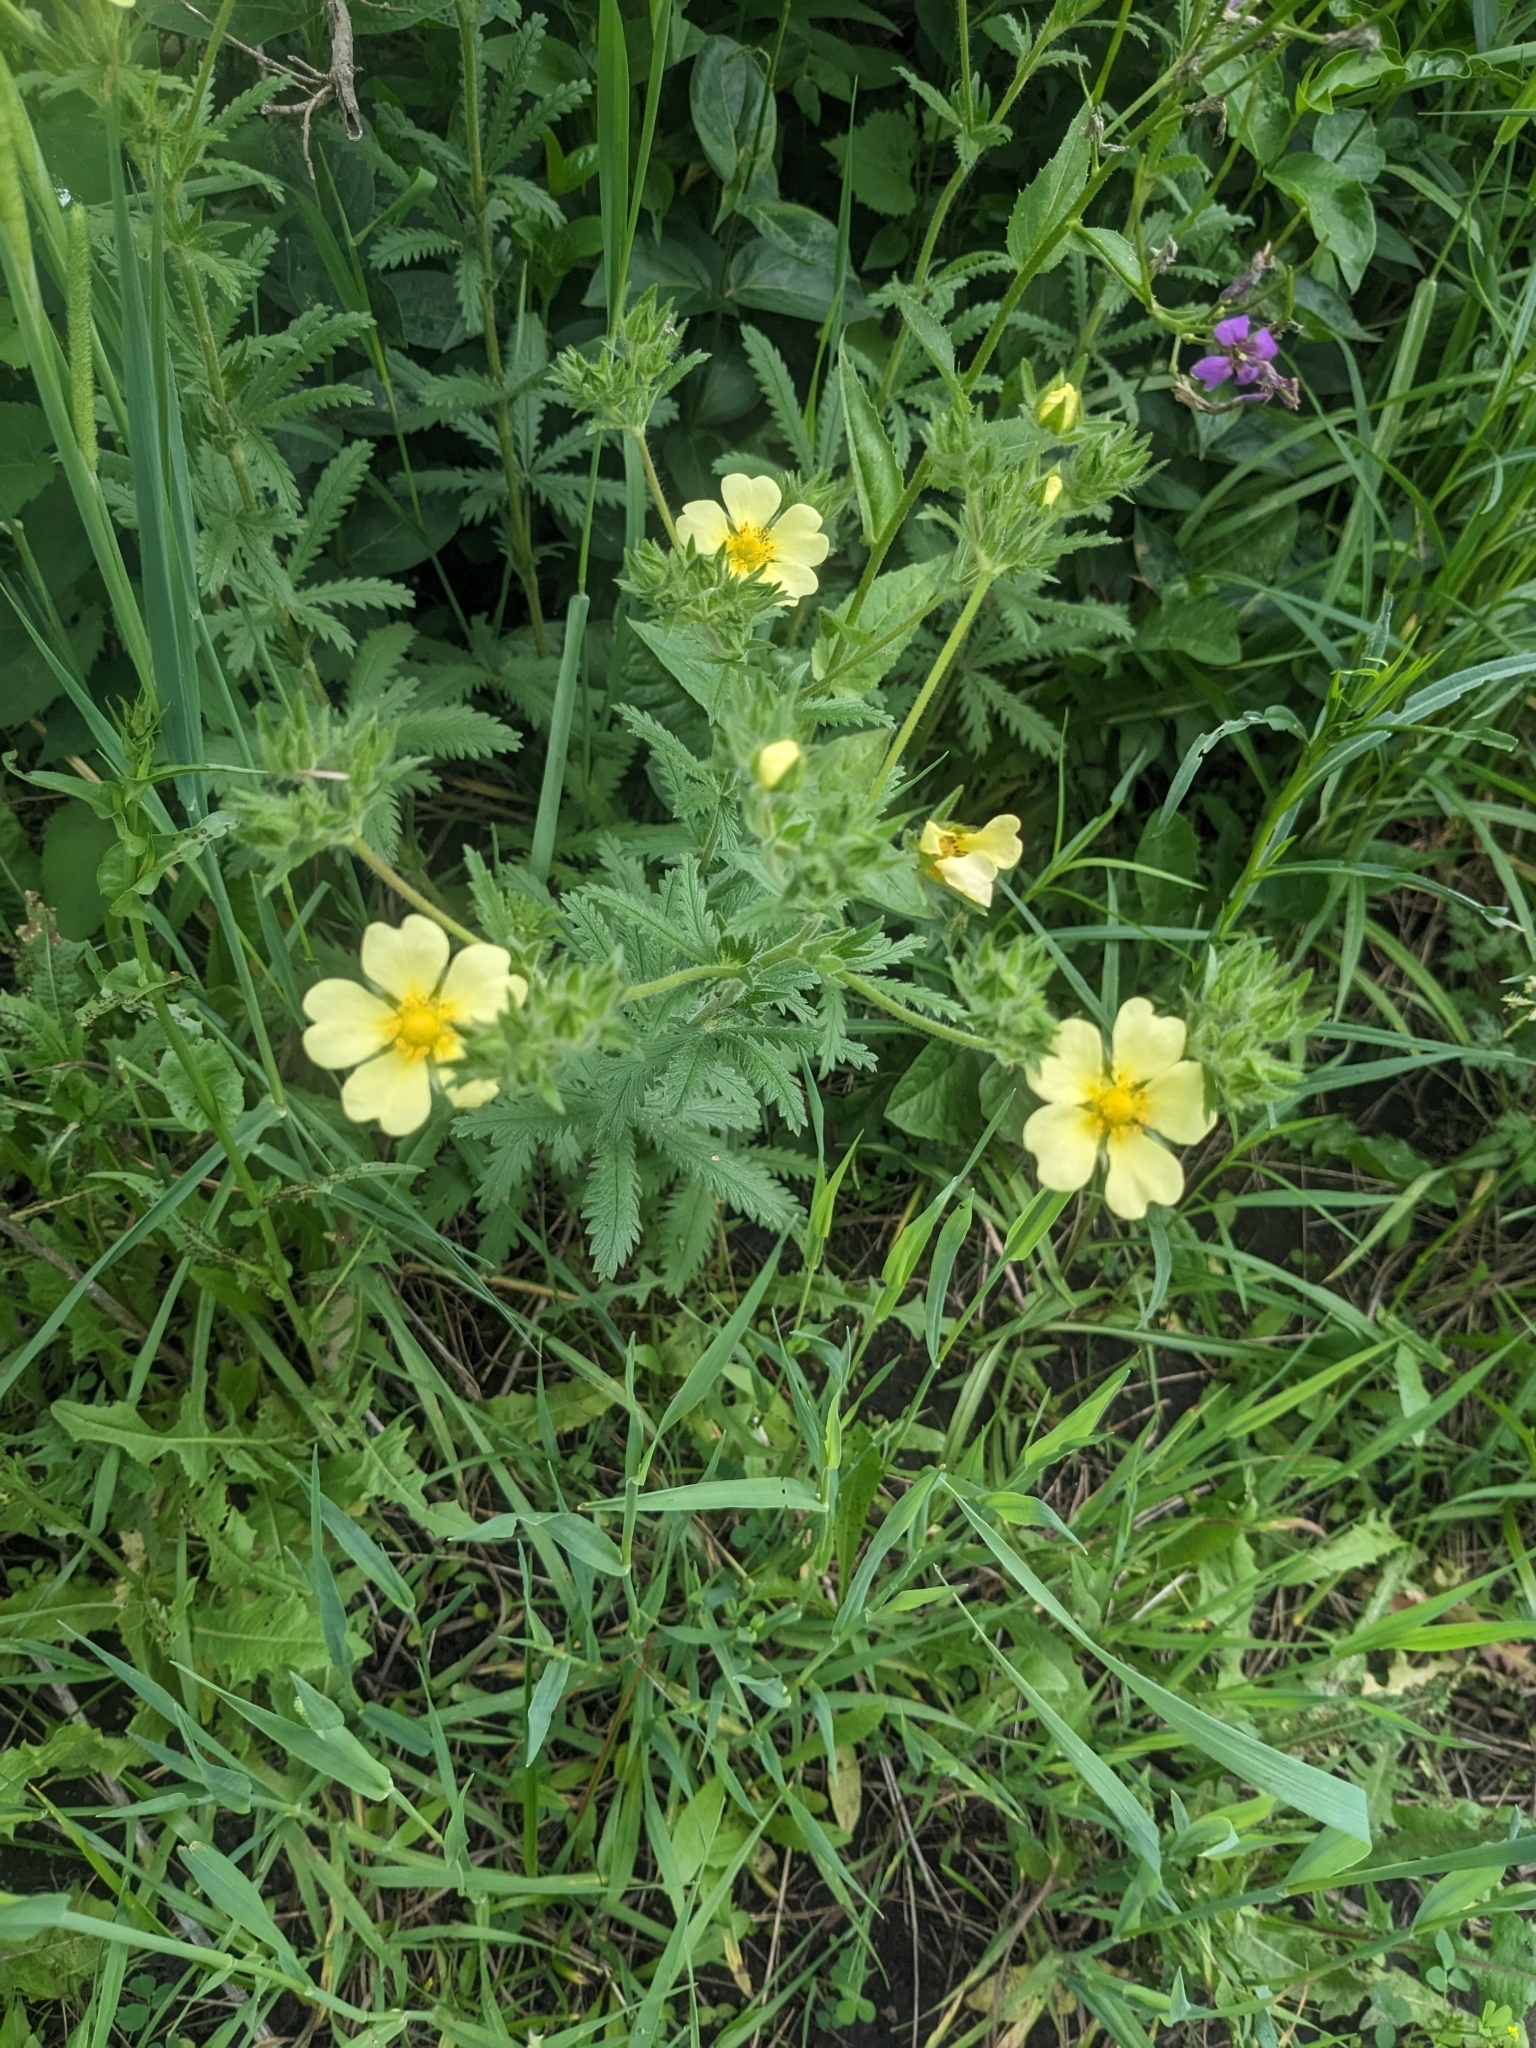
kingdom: Plantae
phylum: Tracheophyta
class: Magnoliopsida
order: Rosales
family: Rosaceae
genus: Potentilla
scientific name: Potentilla recta
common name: Sulphur cinquefoil
